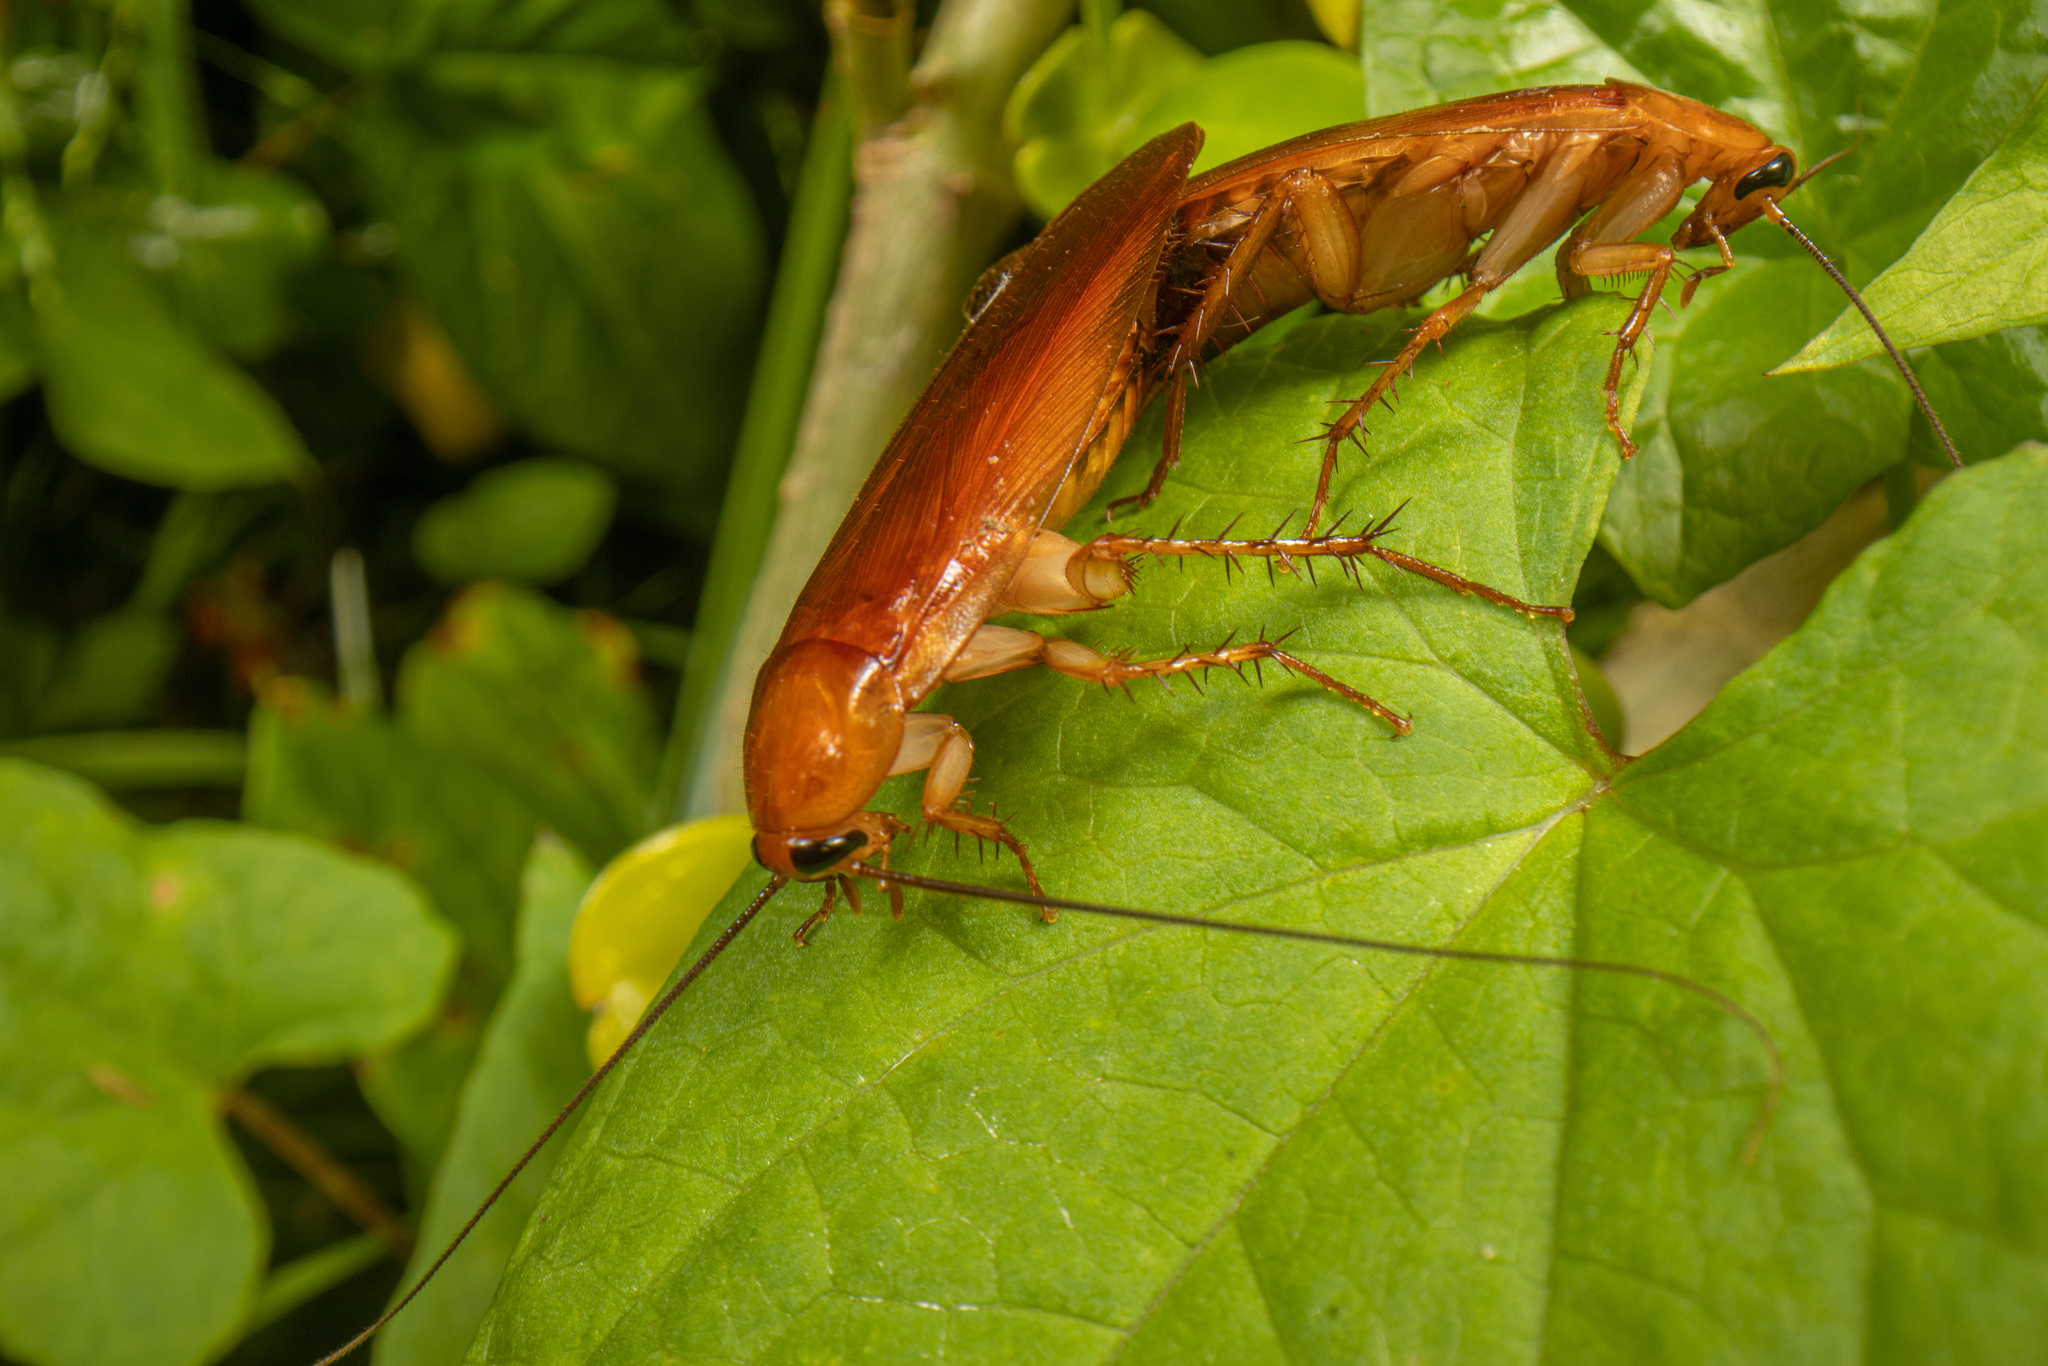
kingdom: Animalia
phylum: Arthropoda
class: Insecta
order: Blattodea
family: Ectobiidae
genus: Neotemnopteryx
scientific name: Neotemnopteryx fulva
